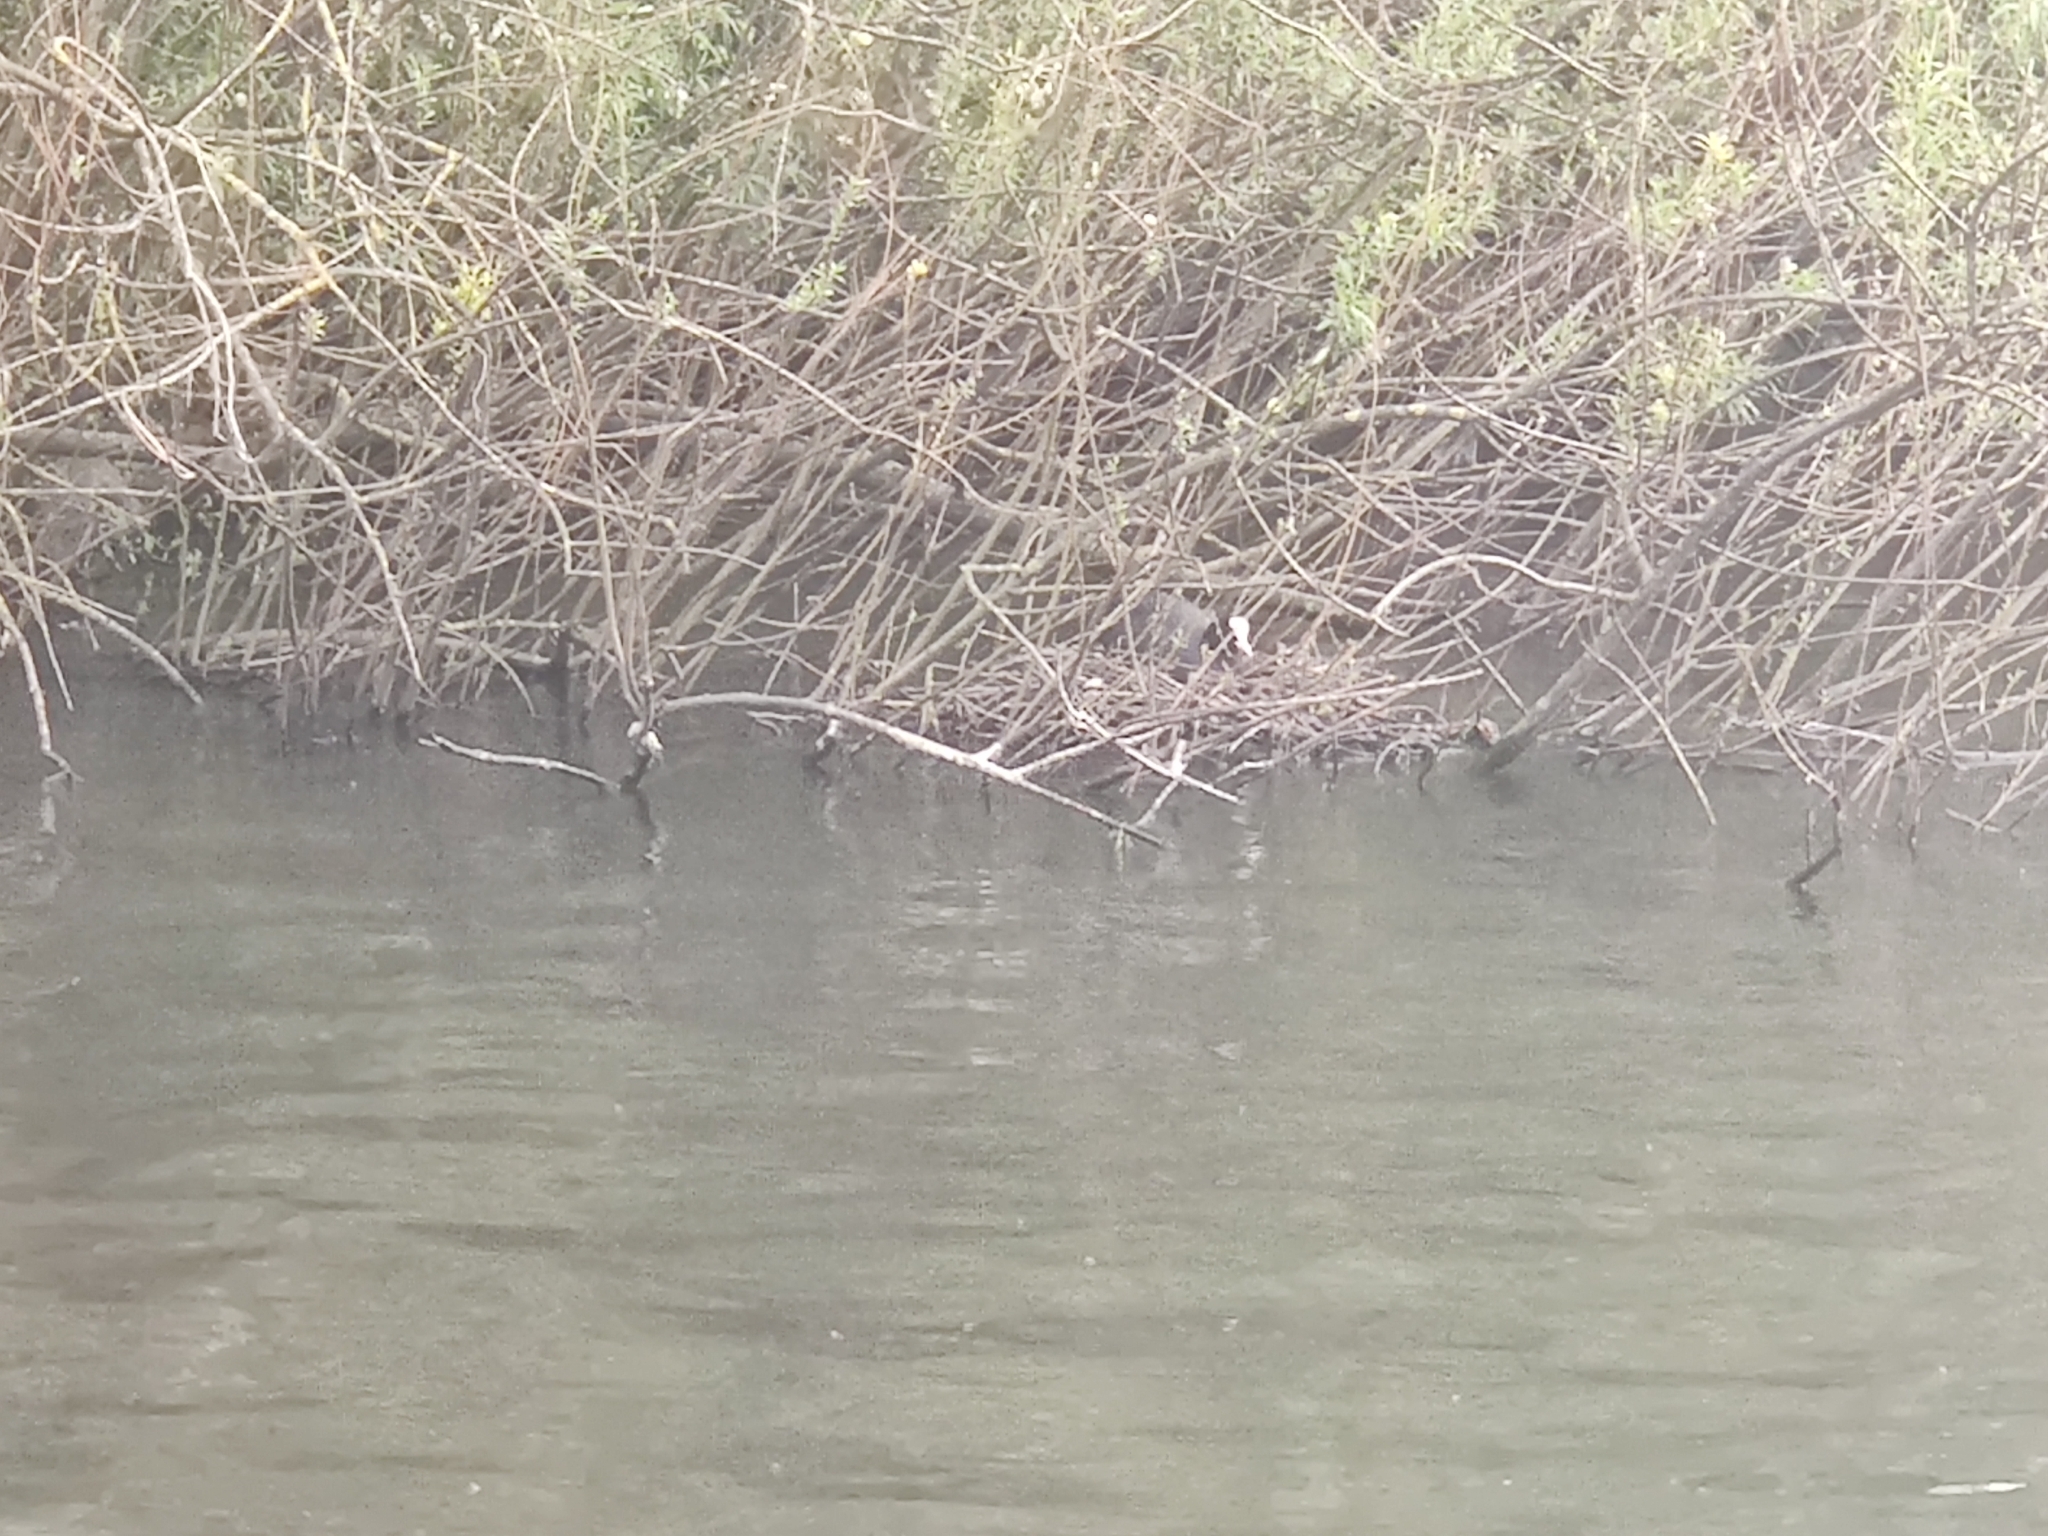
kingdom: Animalia
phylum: Chordata
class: Aves
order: Gruiformes
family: Rallidae
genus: Fulica
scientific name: Fulica atra
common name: Eurasian coot
